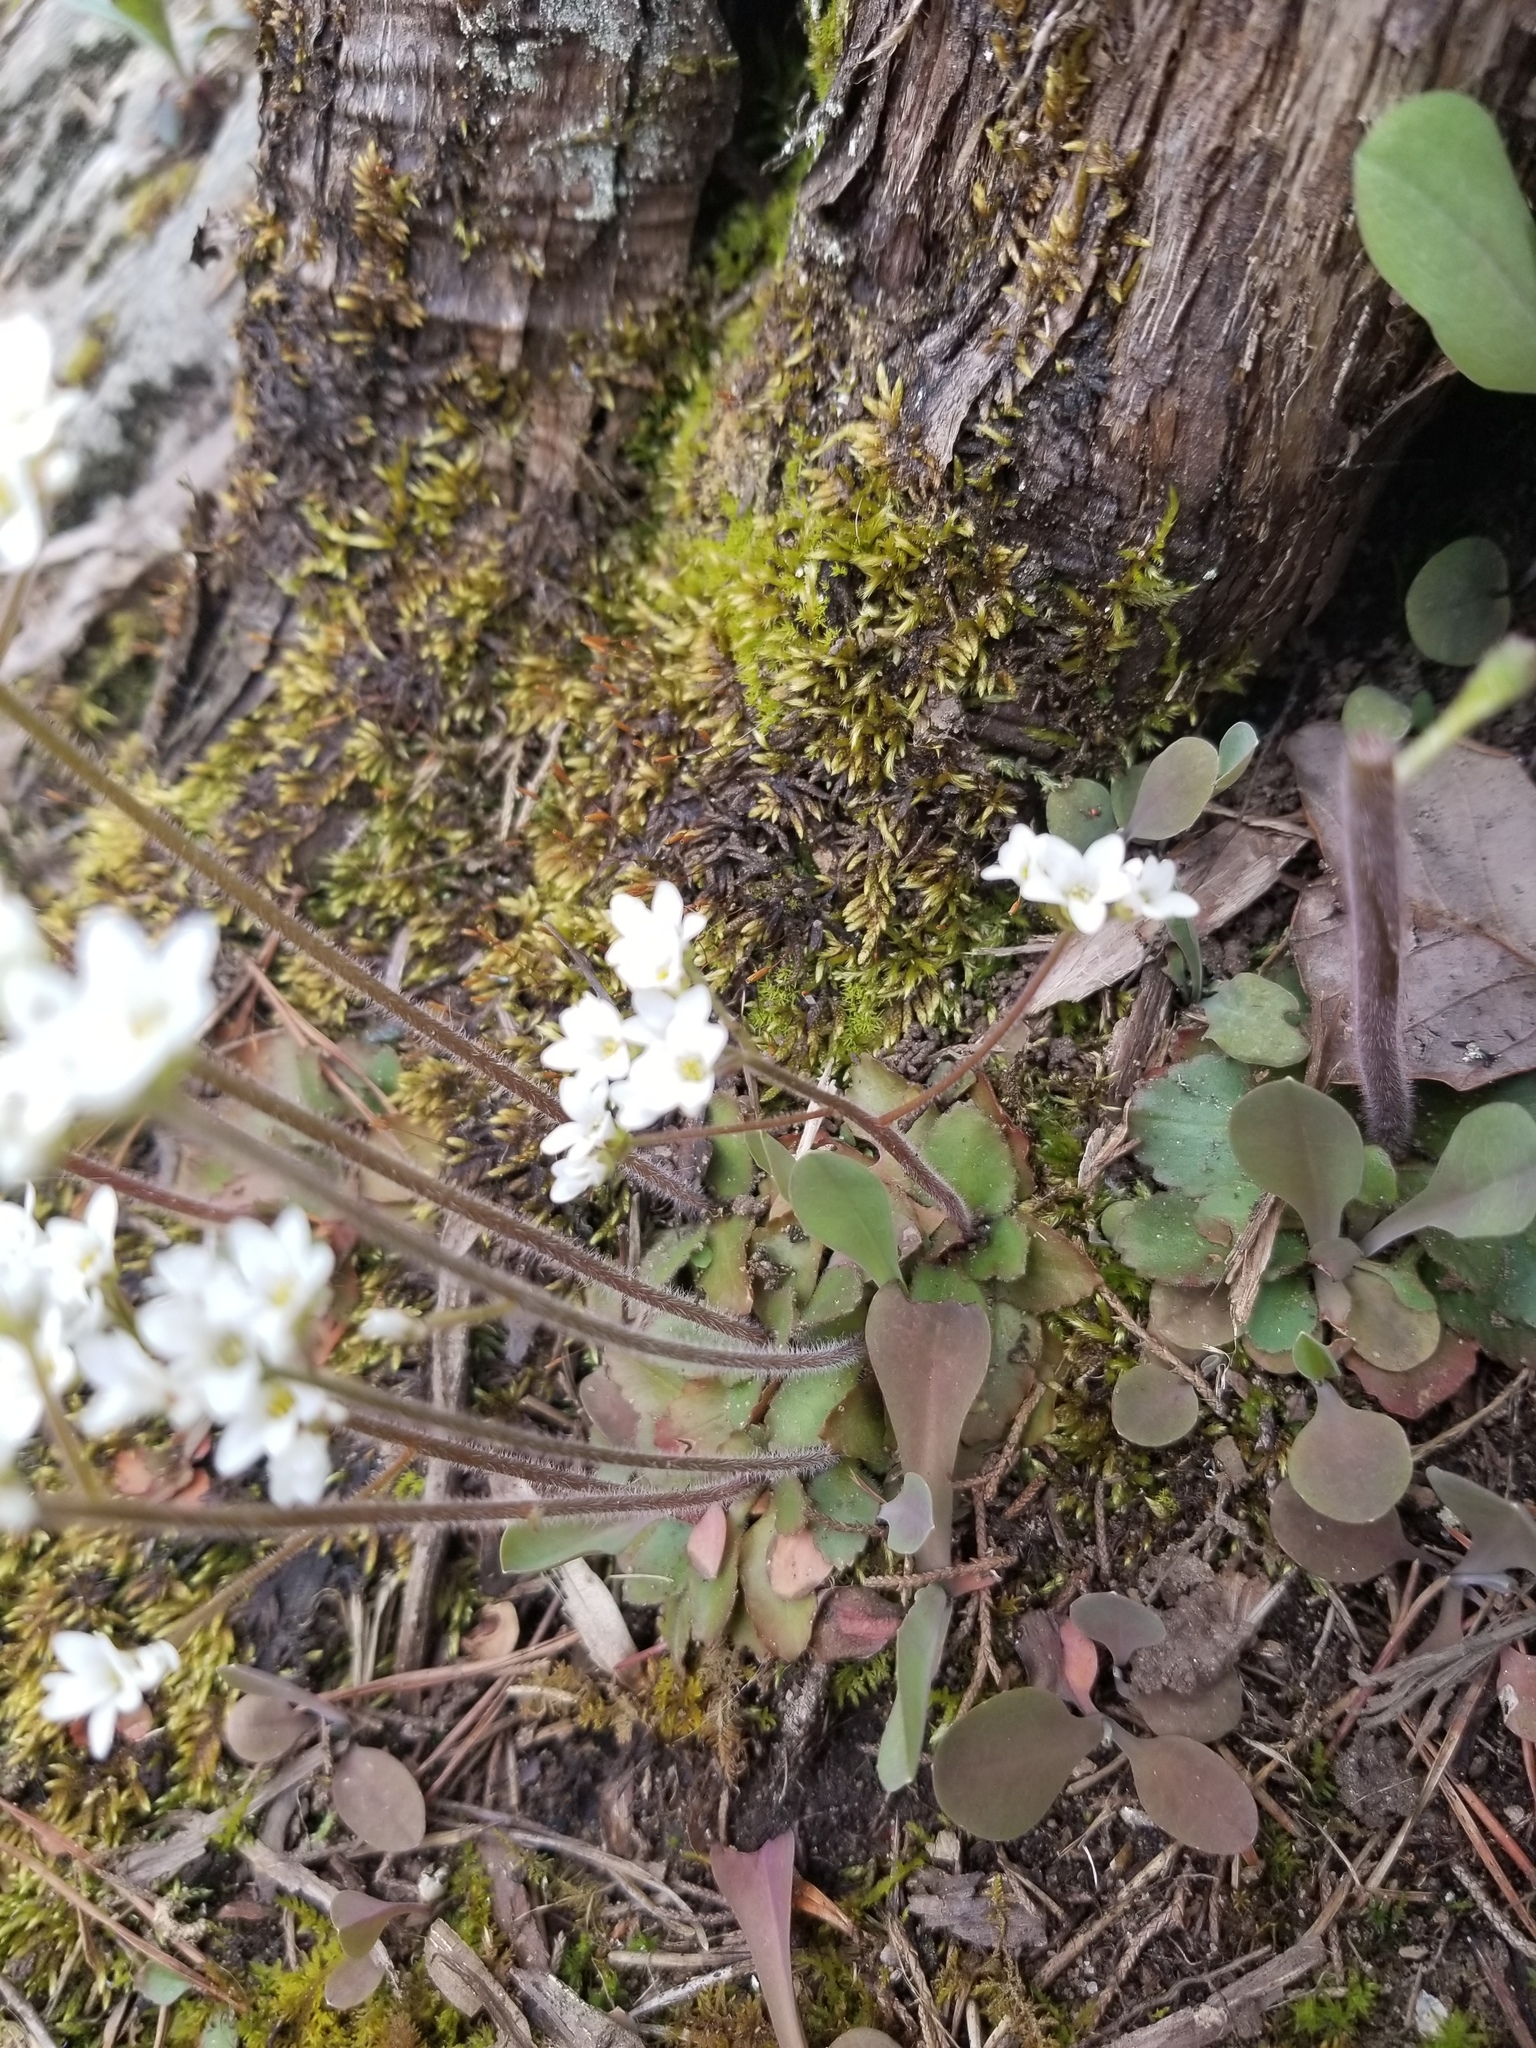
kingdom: Plantae
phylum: Tracheophyta
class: Magnoliopsida
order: Saxifragales
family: Saxifragaceae
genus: Micranthes
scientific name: Micranthes virginiensis
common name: Early saxifrage
